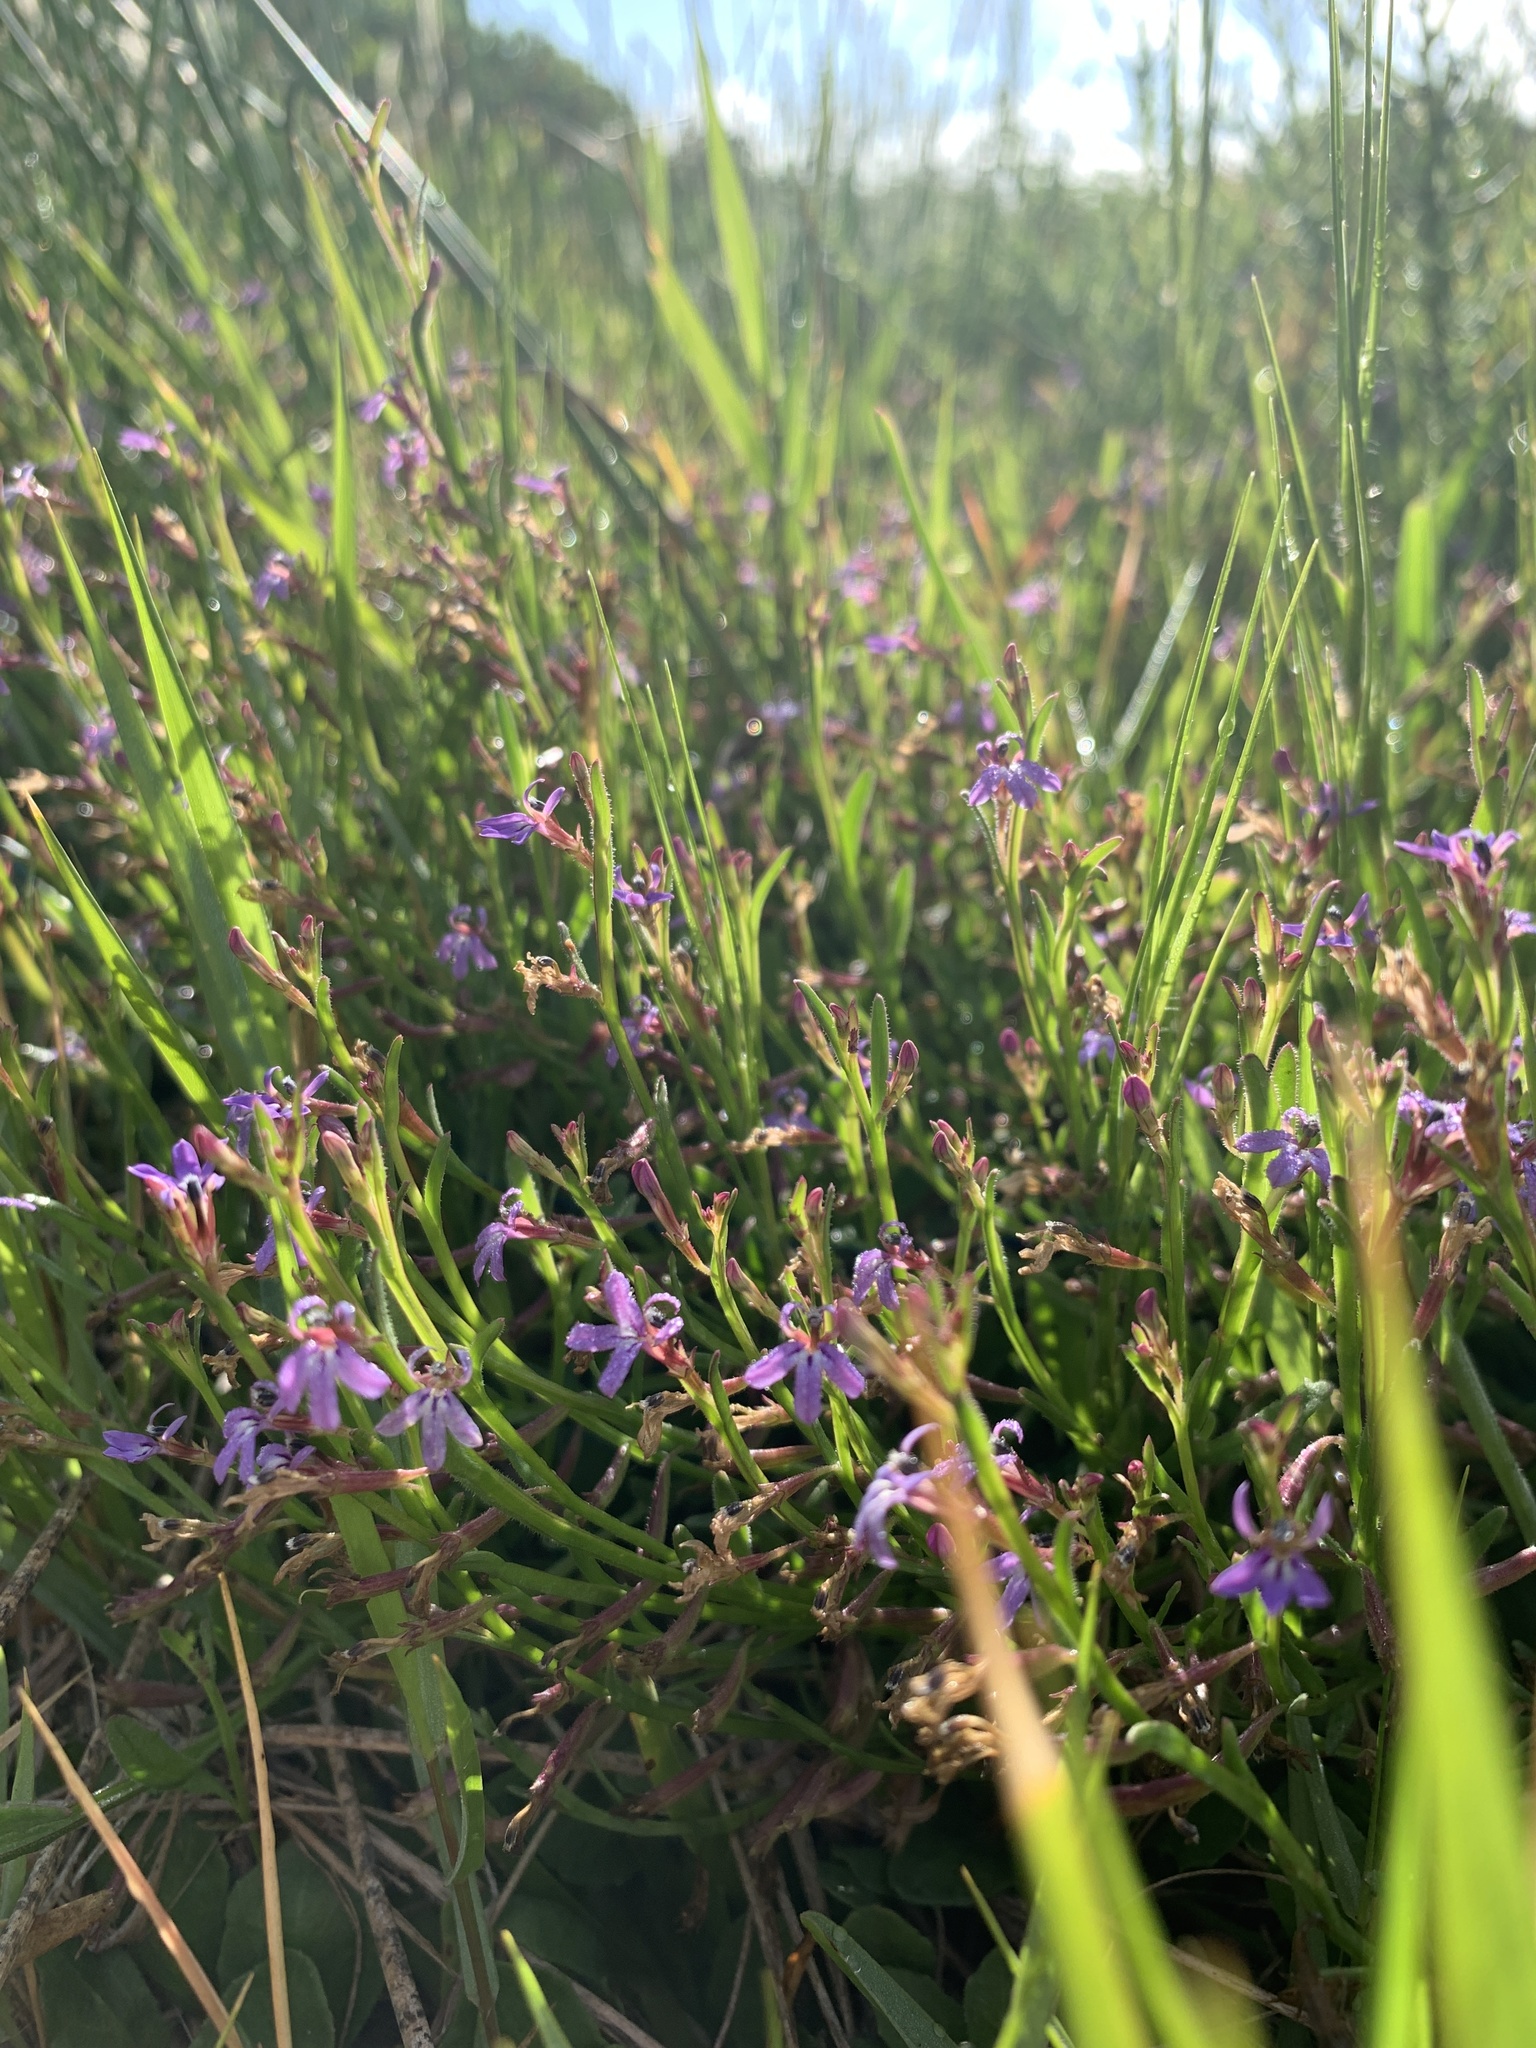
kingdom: Plantae
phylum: Tracheophyta
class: Magnoliopsida
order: Asterales
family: Campanulaceae
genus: Lobelia
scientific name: Lobelia anceps
